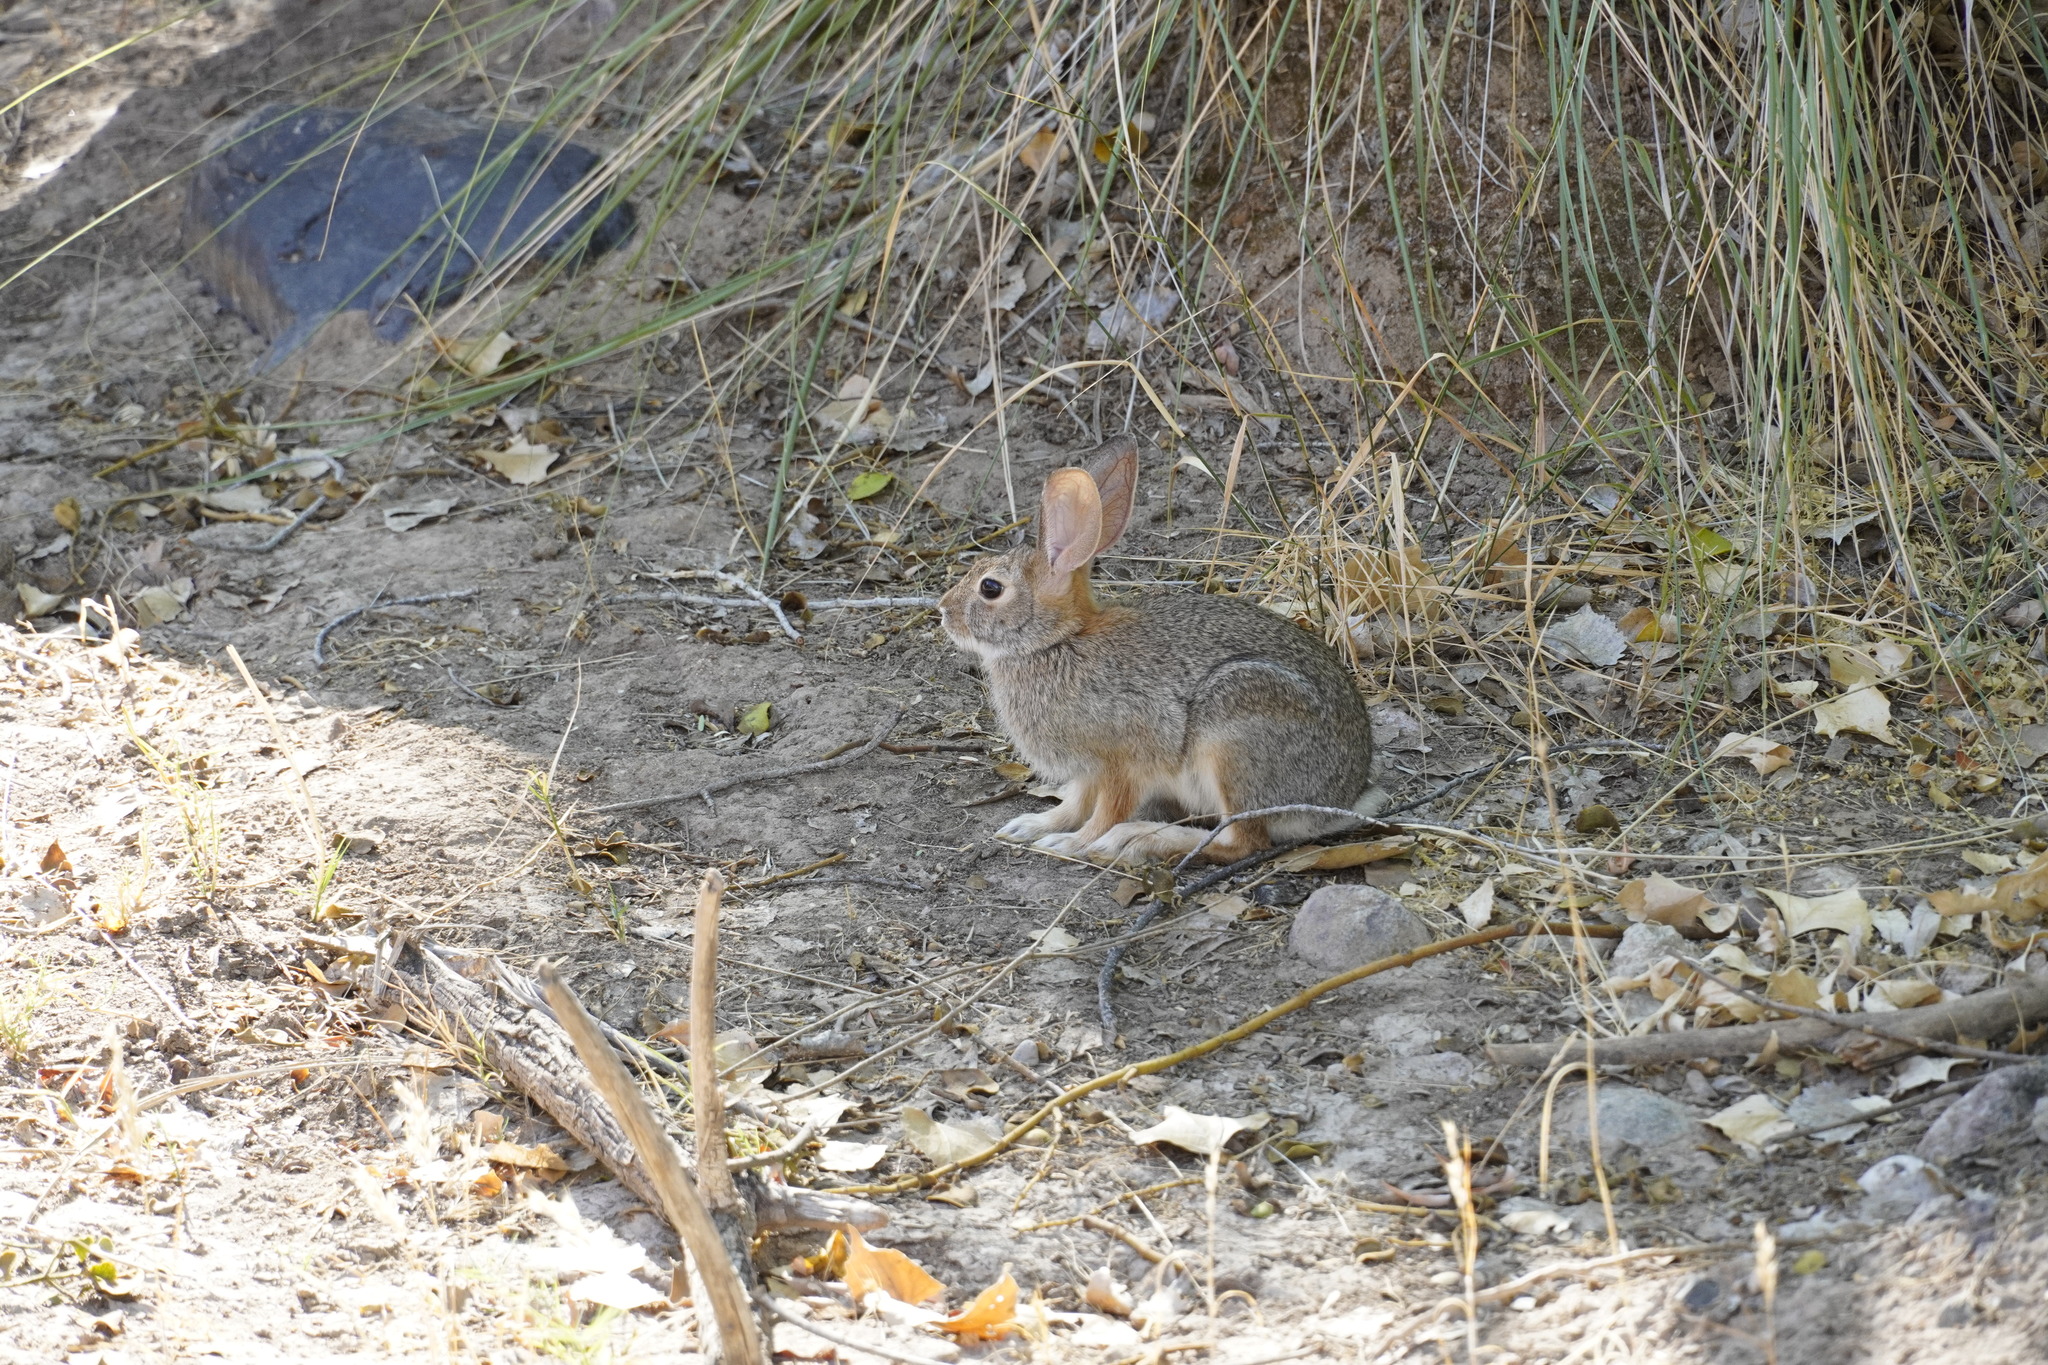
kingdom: Animalia
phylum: Chordata
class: Mammalia
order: Lagomorpha
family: Leporidae
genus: Sylvilagus
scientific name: Sylvilagus audubonii
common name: Desert cottontail
